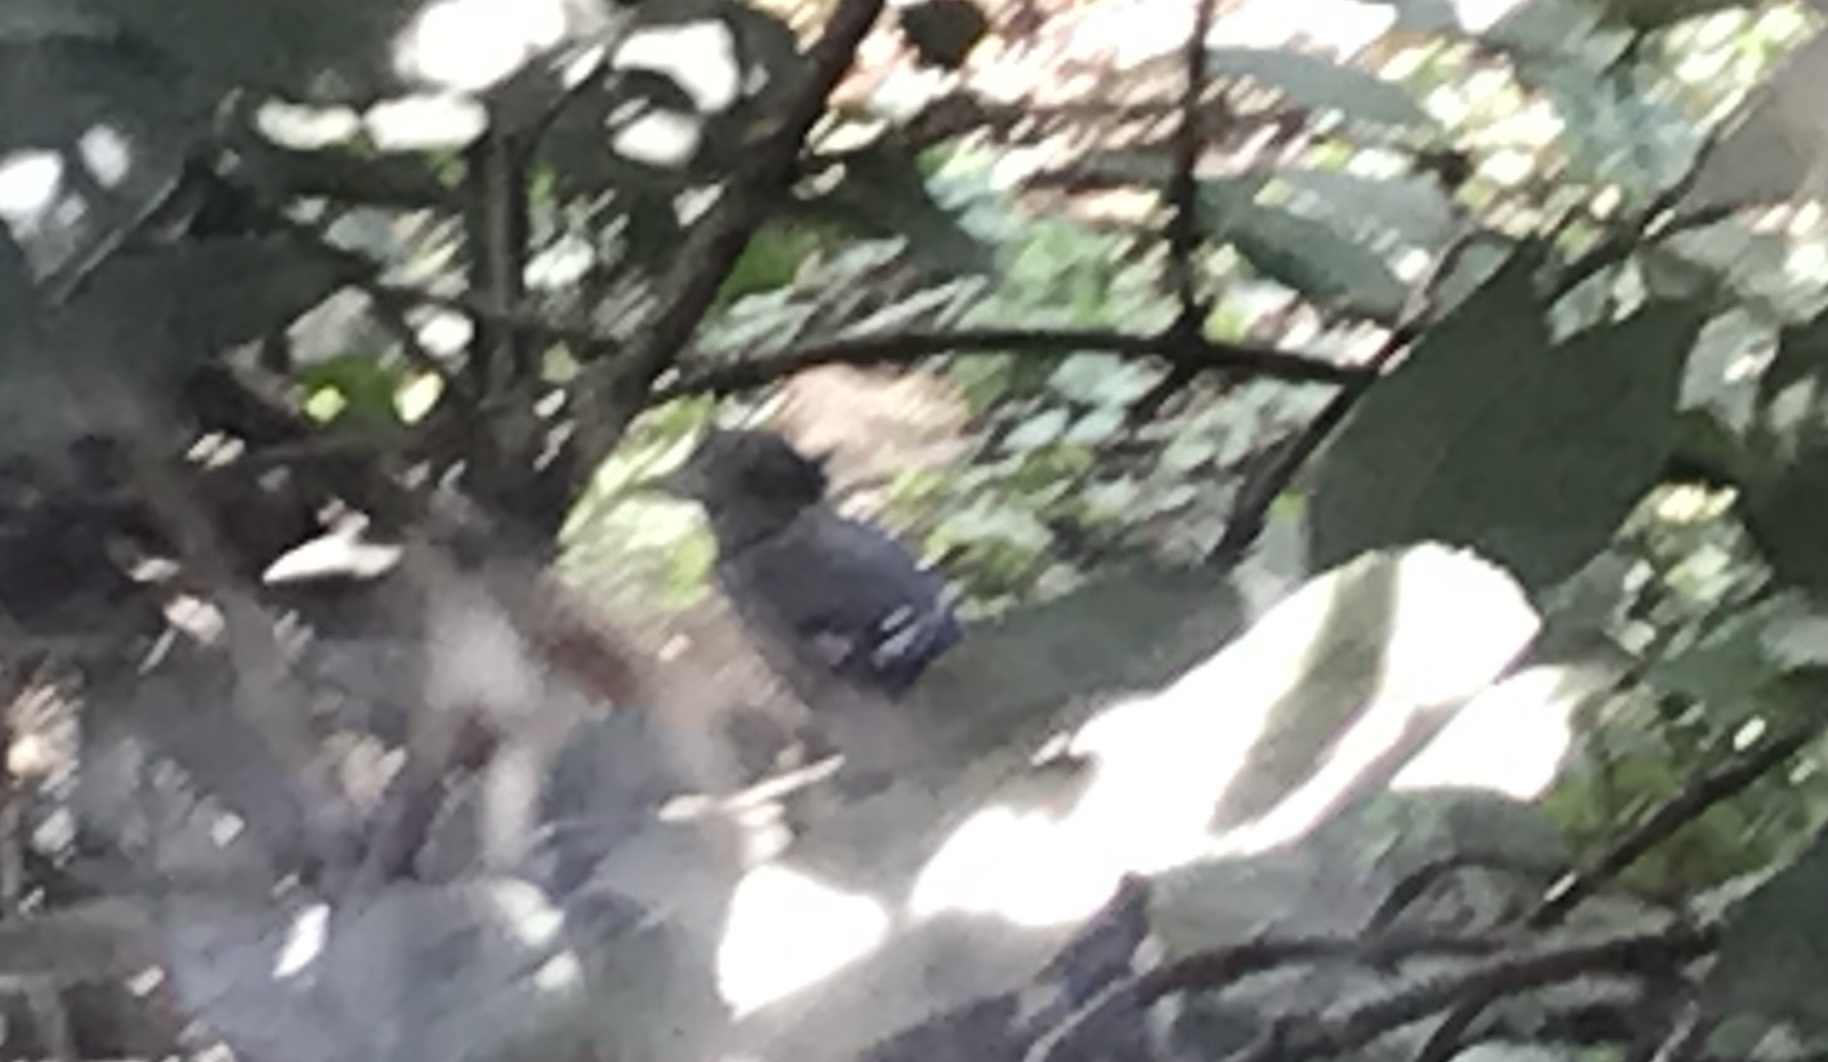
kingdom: Animalia
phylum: Chordata
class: Aves
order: Passeriformes
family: Corvidae
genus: Cyanocitta
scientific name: Cyanocitta cristata
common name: Blue jay
